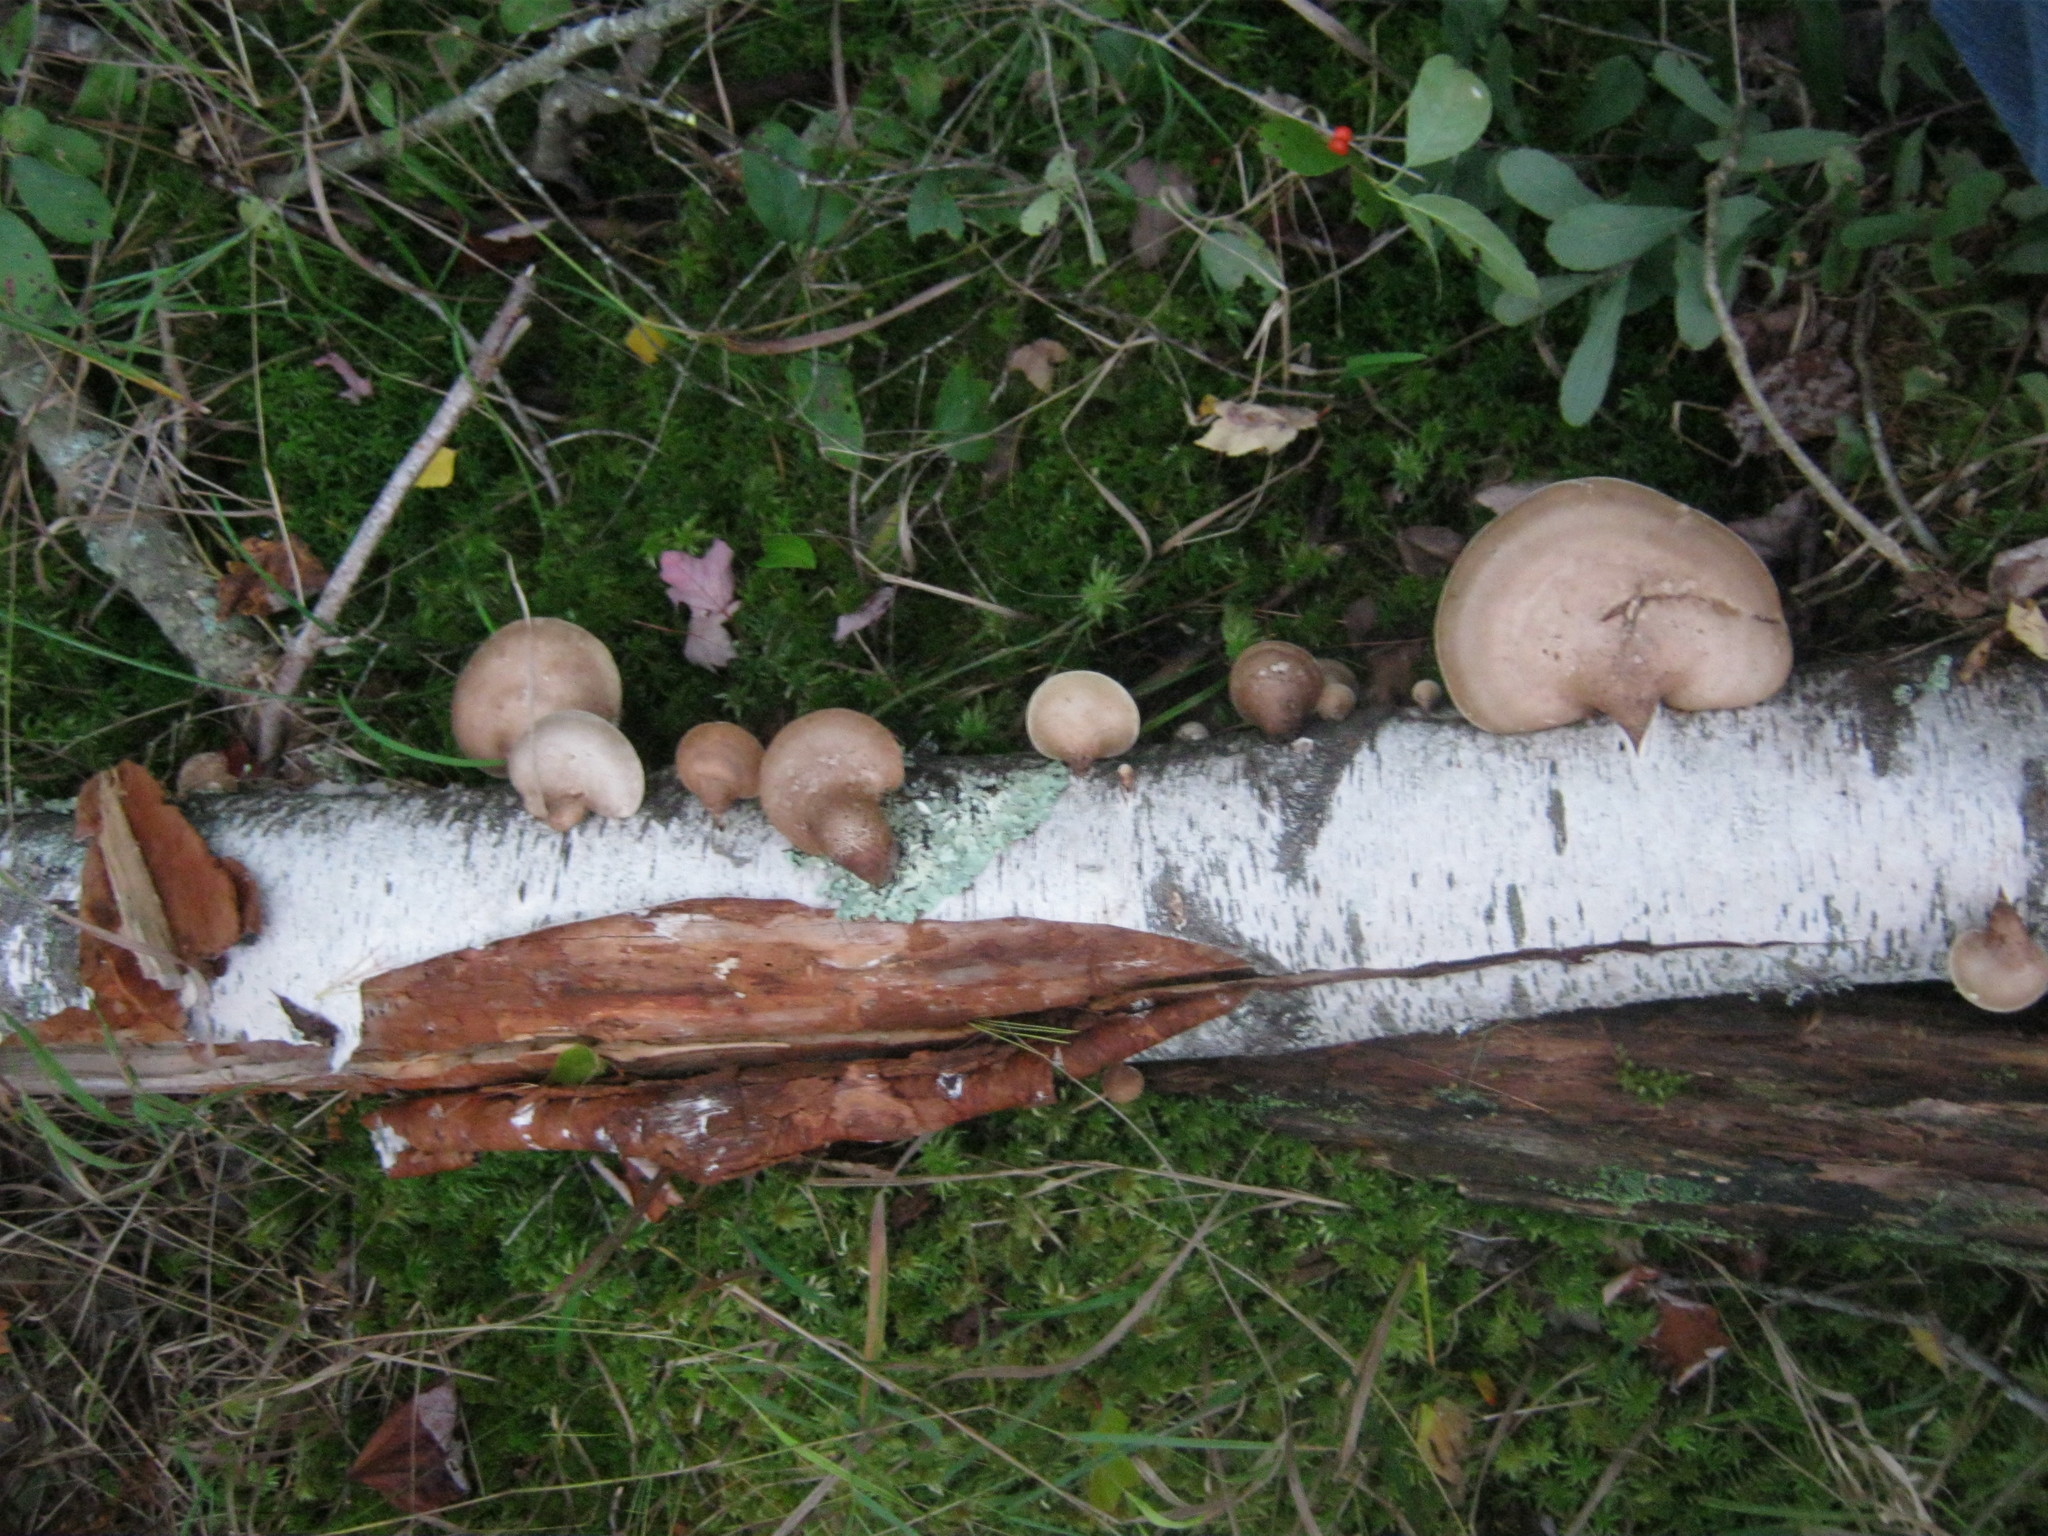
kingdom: Fungi
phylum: Basidiomycota
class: Agaricomycetes
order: Polyporales
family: Fomitopsidaceae
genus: Fomitopsis
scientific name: Fomitopsis betulina
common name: Birch polypore
